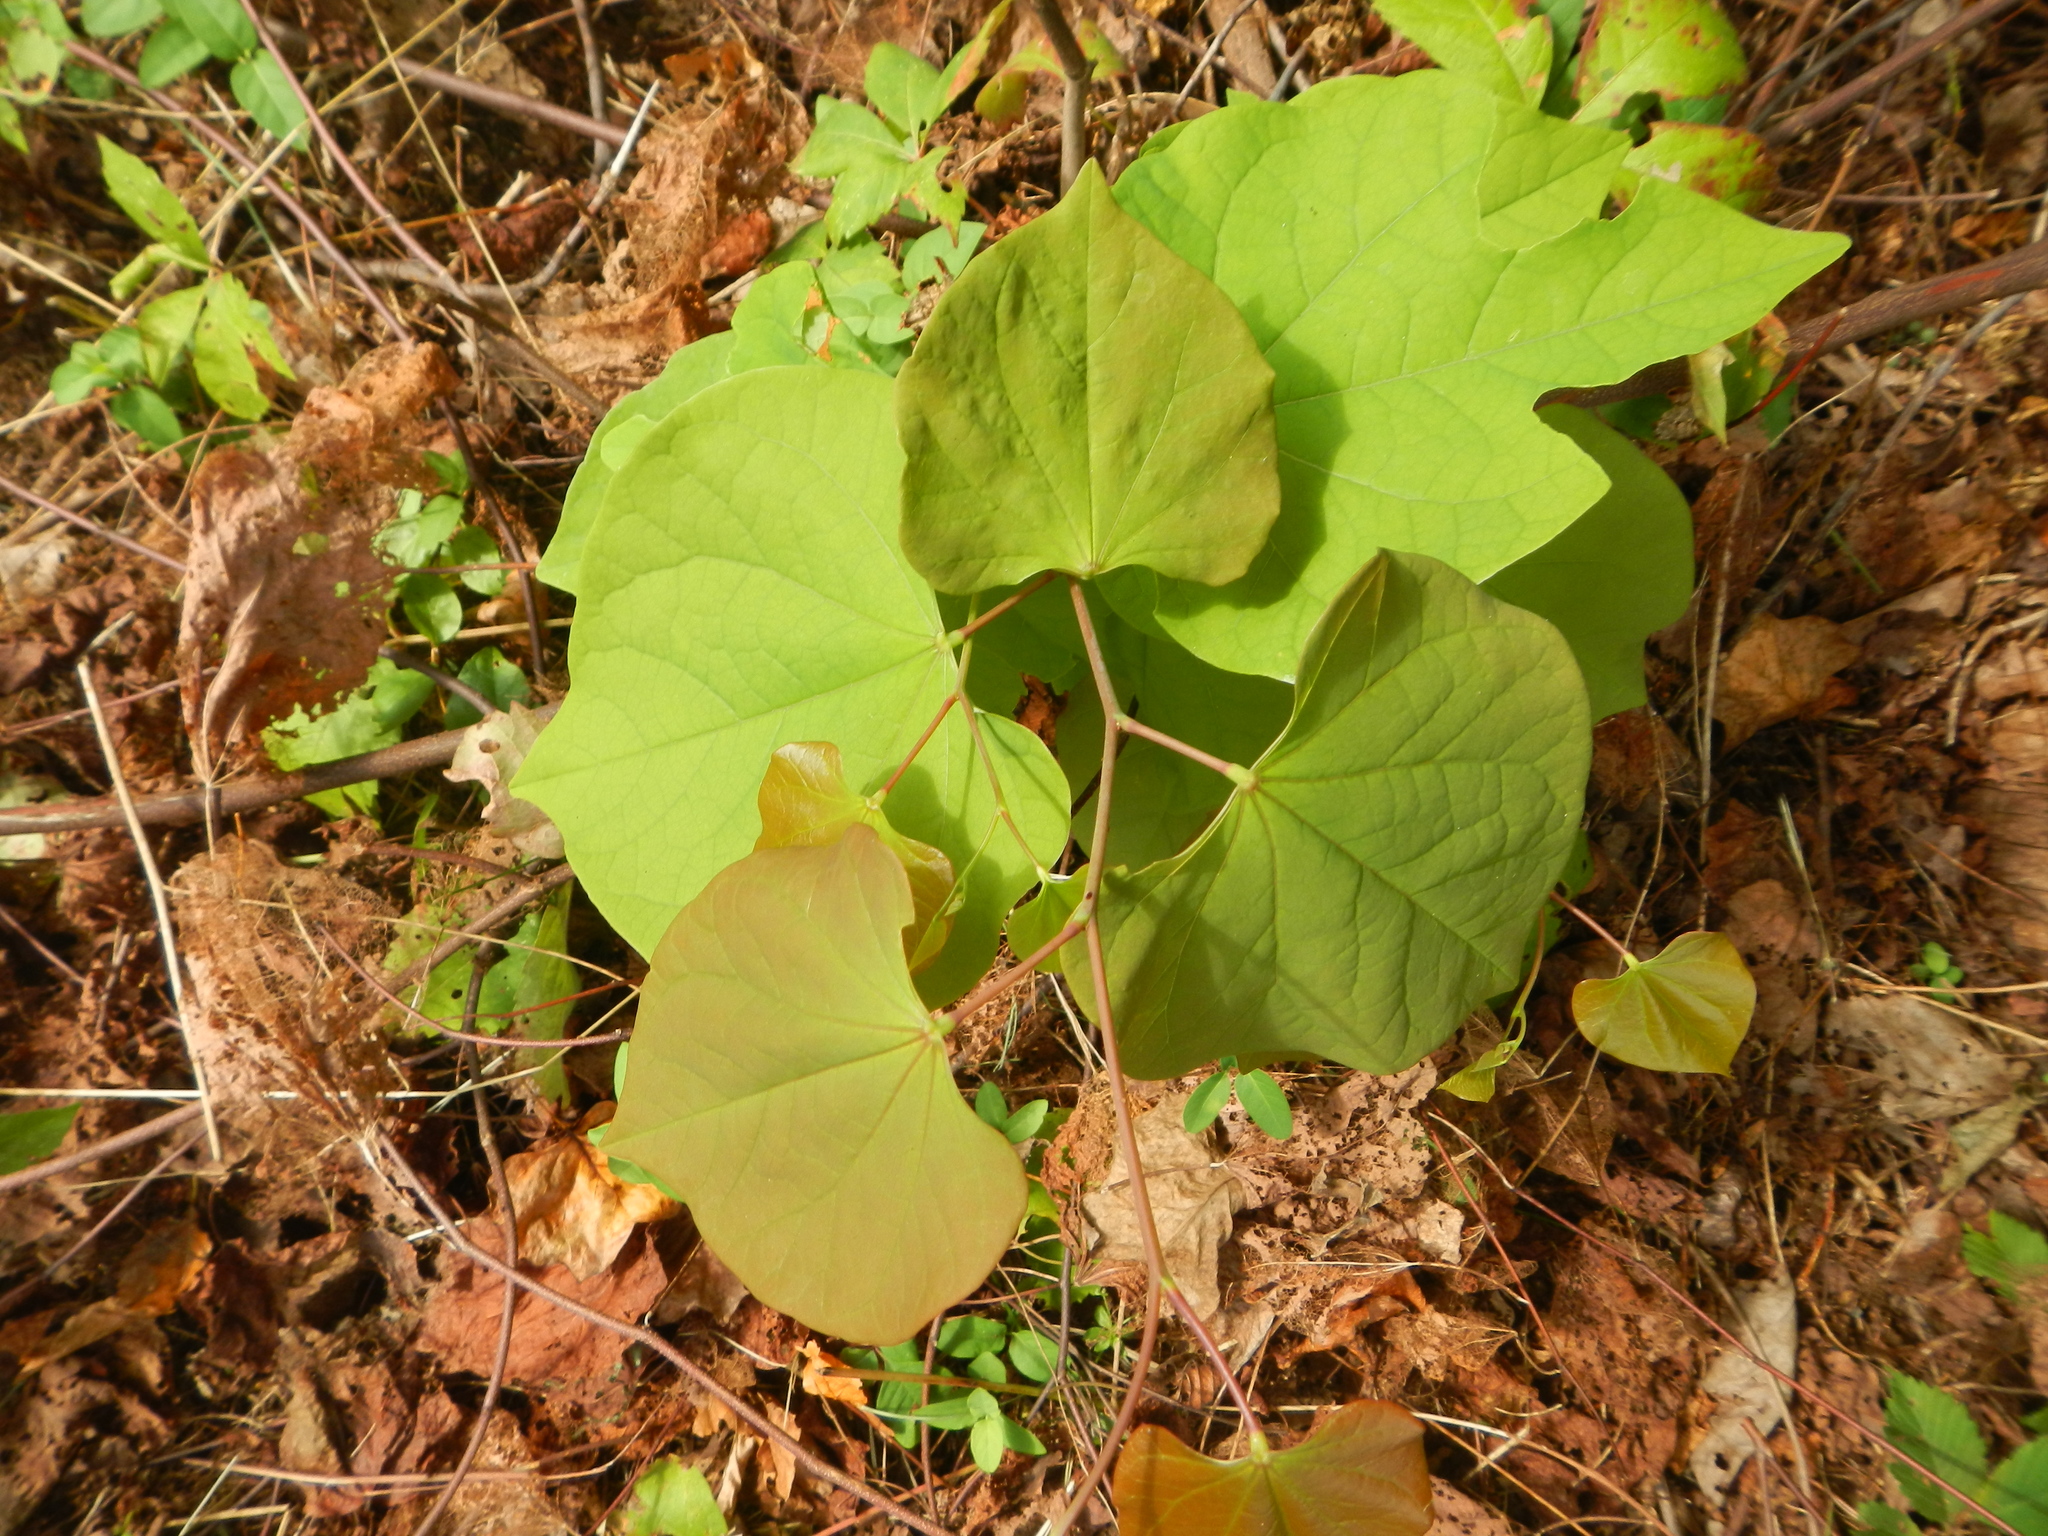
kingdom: Plantae
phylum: Tracheophyta
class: Magnoliopsida
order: Fabales
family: Fabaceae
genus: Cercis
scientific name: Cercis canadensis
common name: Eastern redbud
